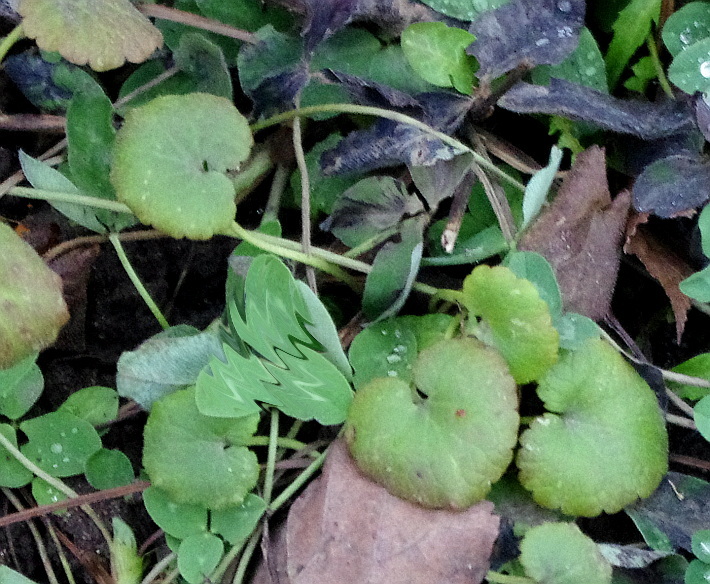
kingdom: Plantae
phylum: Tracheophyta
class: Magnoliopsida
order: Lamiales
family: Lamiaceae
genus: Glechoma
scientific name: Glechoma hederacea
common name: Ground ivy
